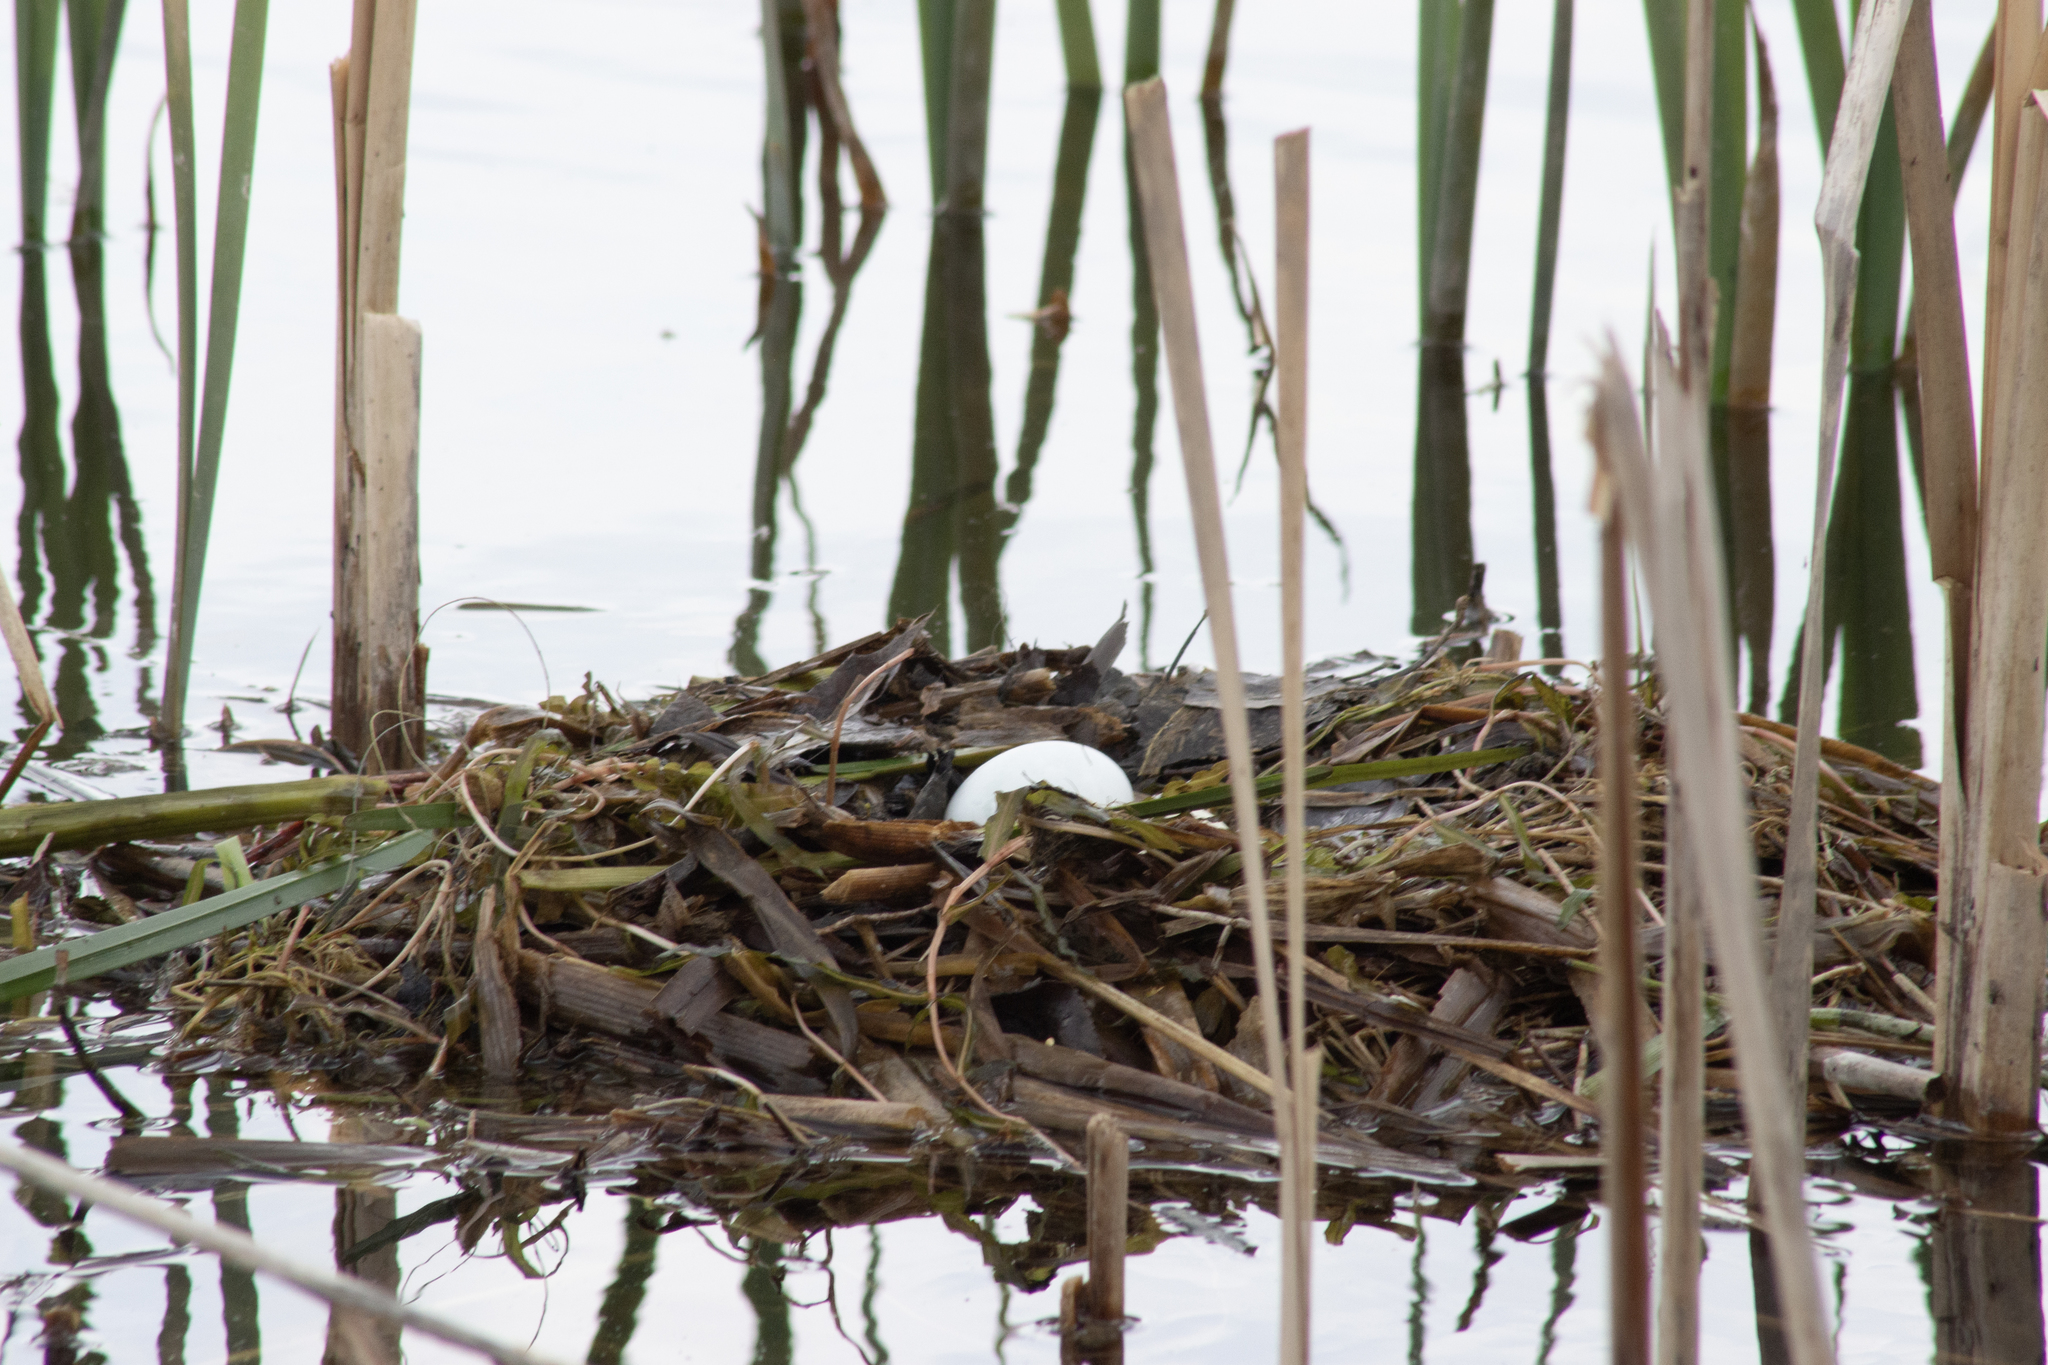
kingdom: Animalia
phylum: Chordata
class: Aves
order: Podicipediformes
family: Podicipedidae
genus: Podiceps
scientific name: Podiceps cristatus
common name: Great crested grebe
